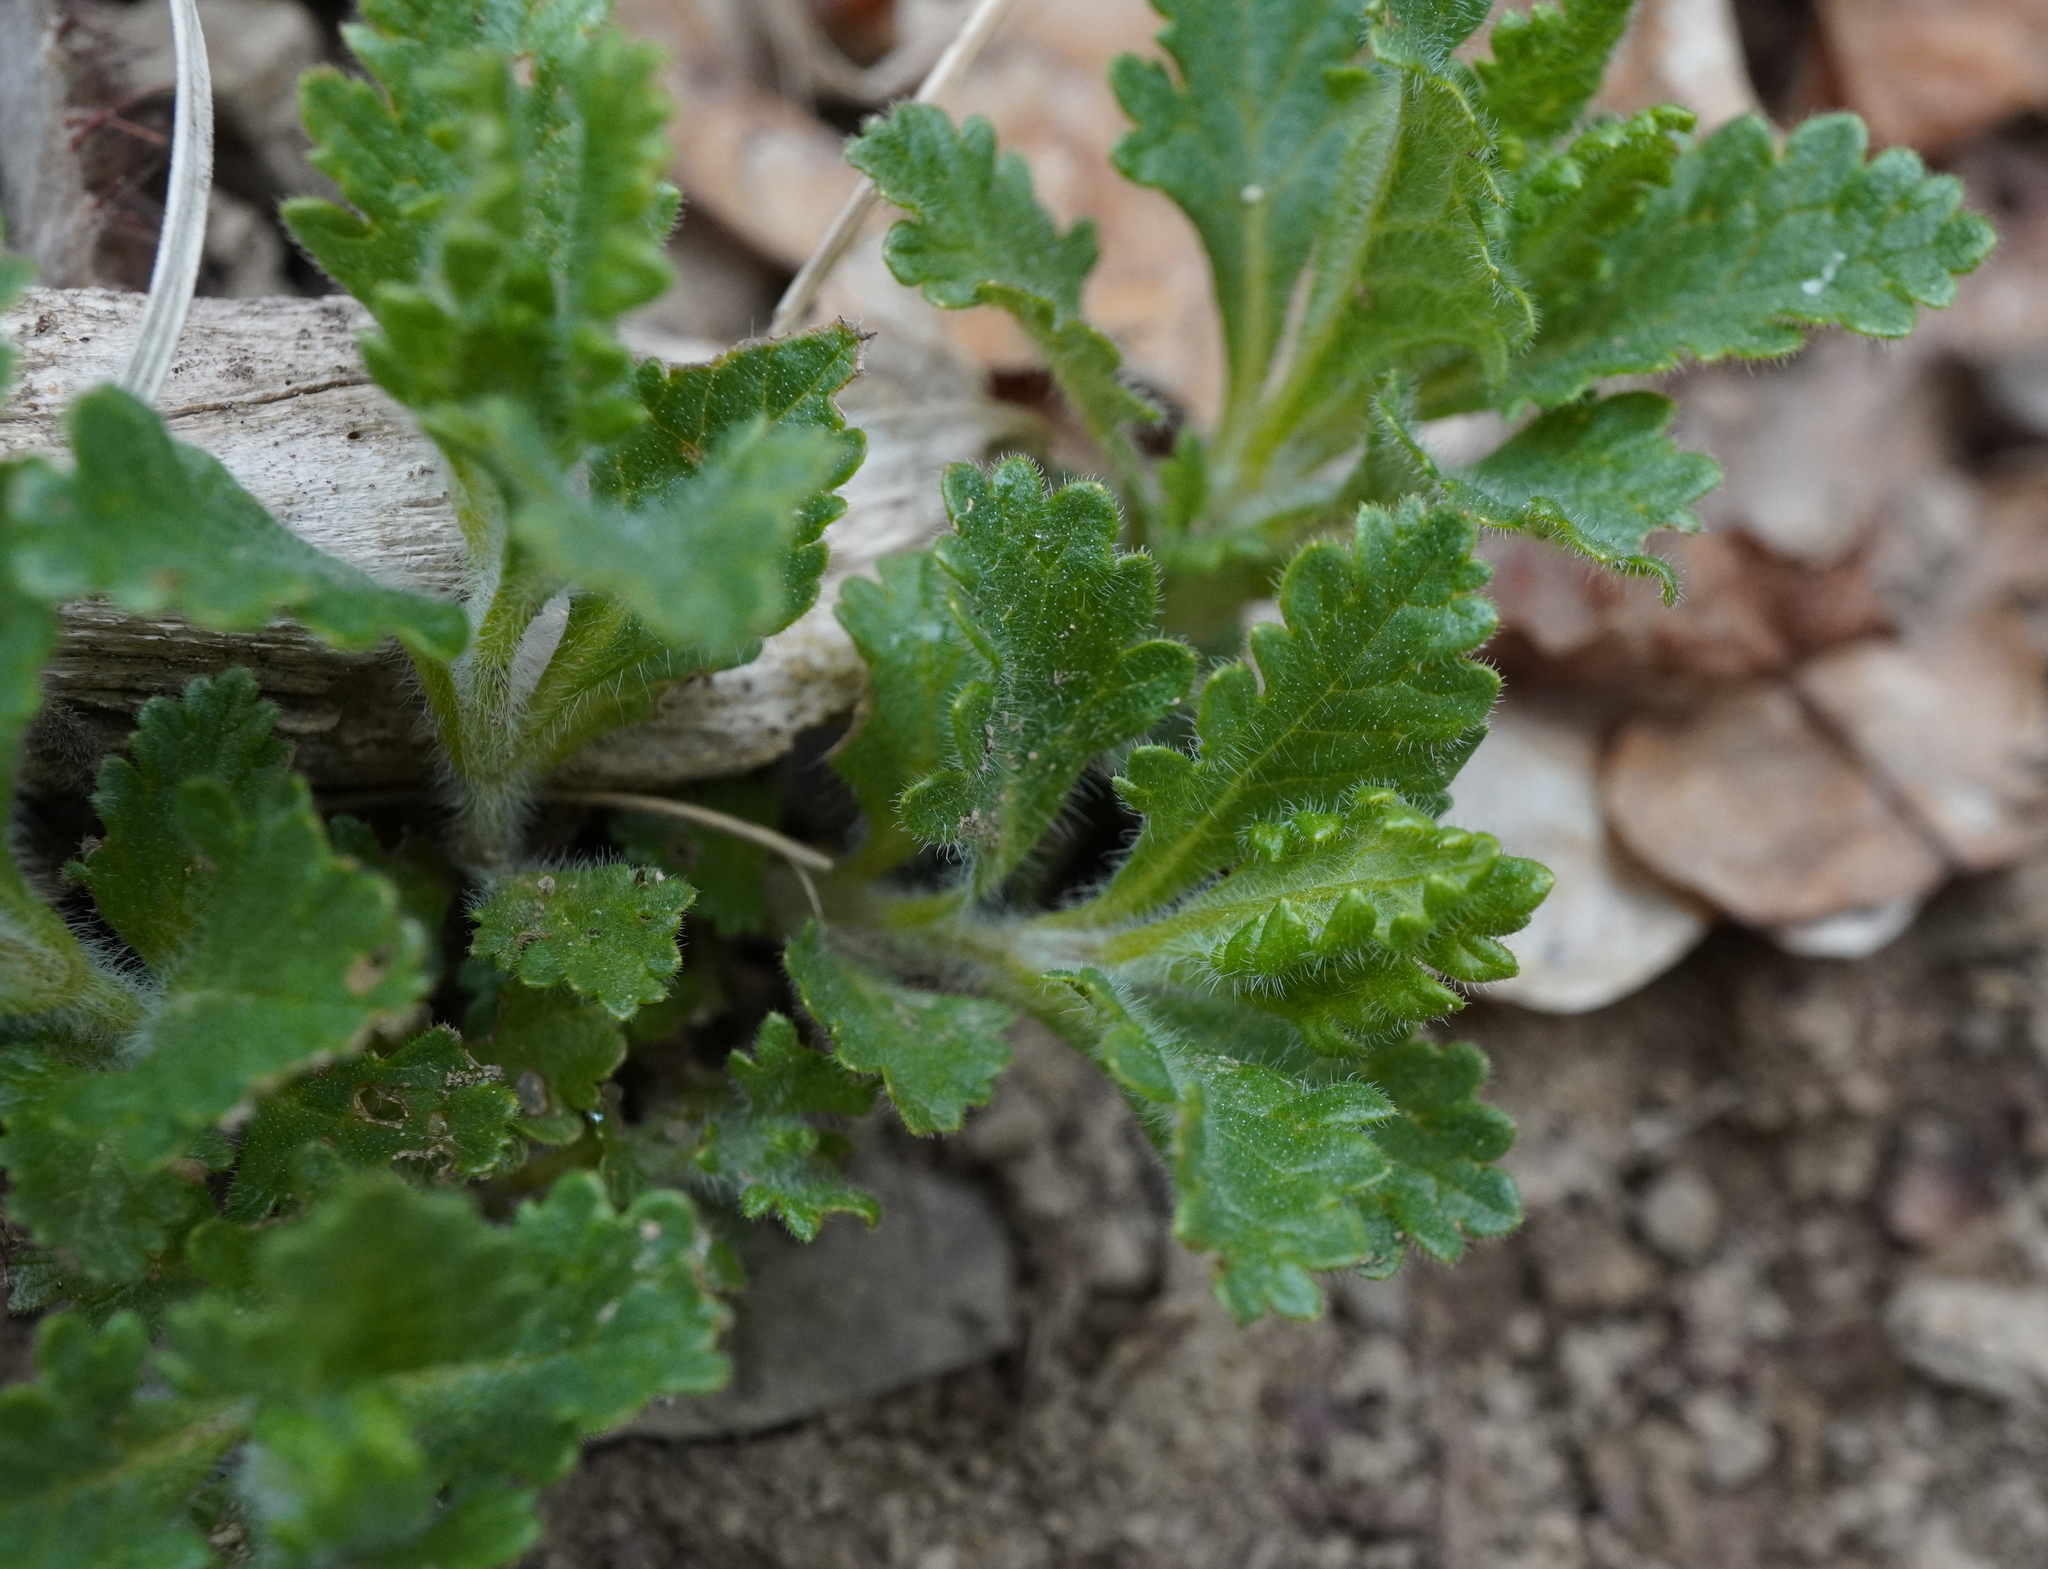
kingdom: Plantae
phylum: Tracheophyta
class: Magnoliopsida
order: Lamiales
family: Lamiaceae
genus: Teucrium
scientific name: Teucrium chamaedrys
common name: Wall germander
